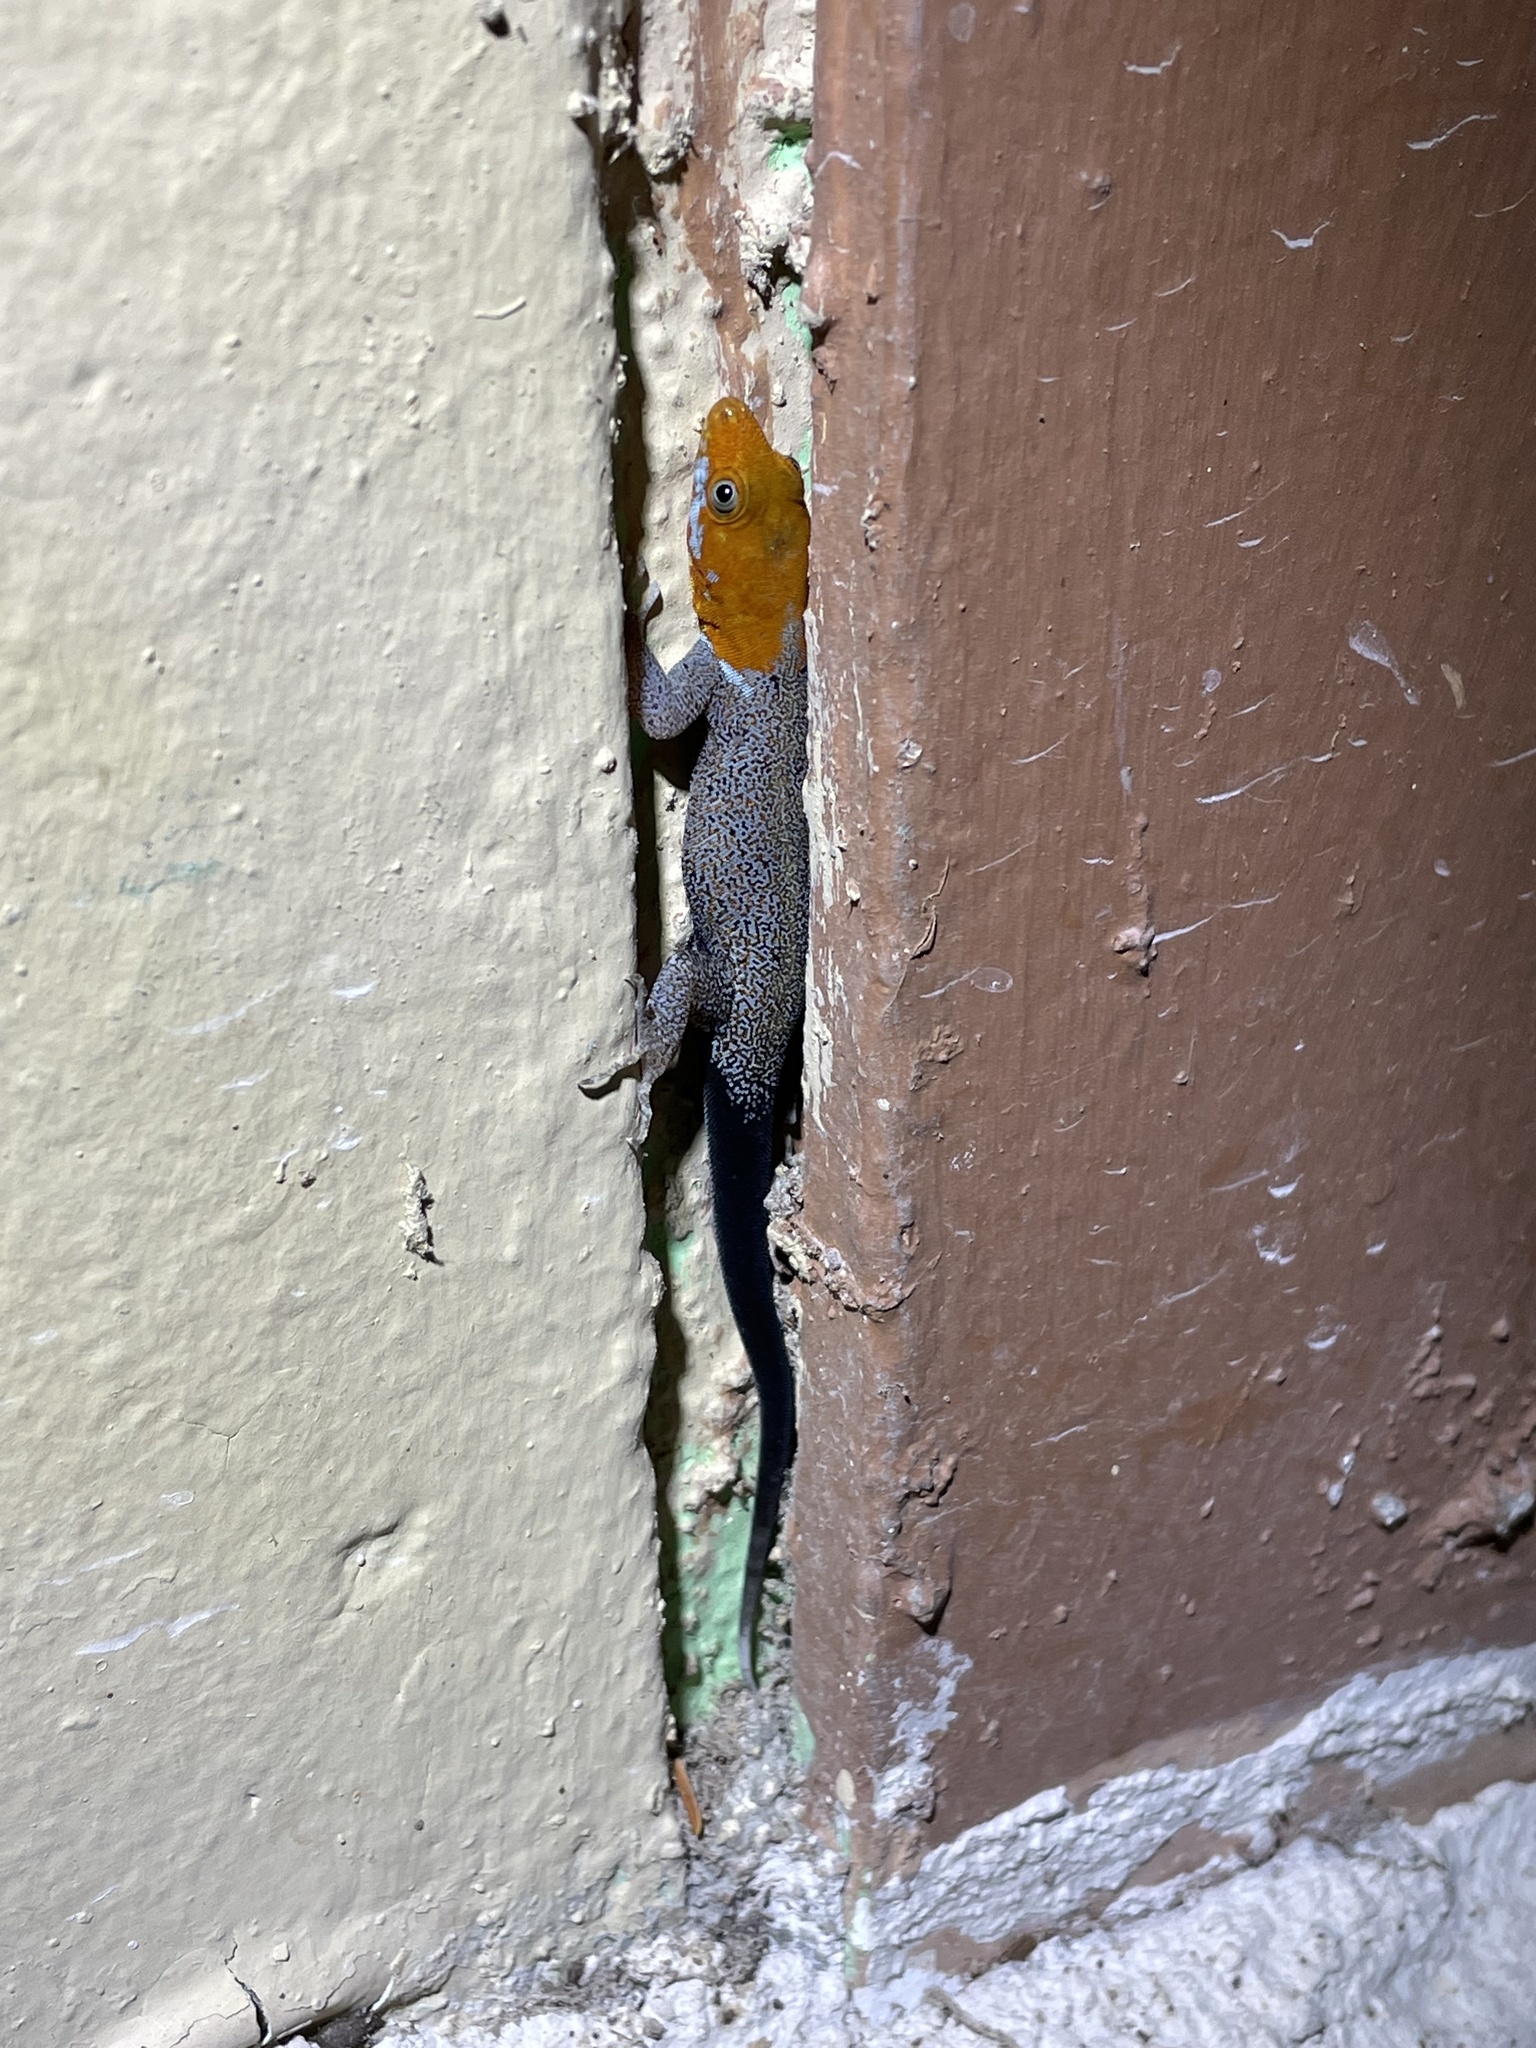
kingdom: Animalia
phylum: Chordata
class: Squamata
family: Sphaerodactylidae
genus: Gonatodes
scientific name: Gonatodes albogularis
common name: Yellow-headed gecko
